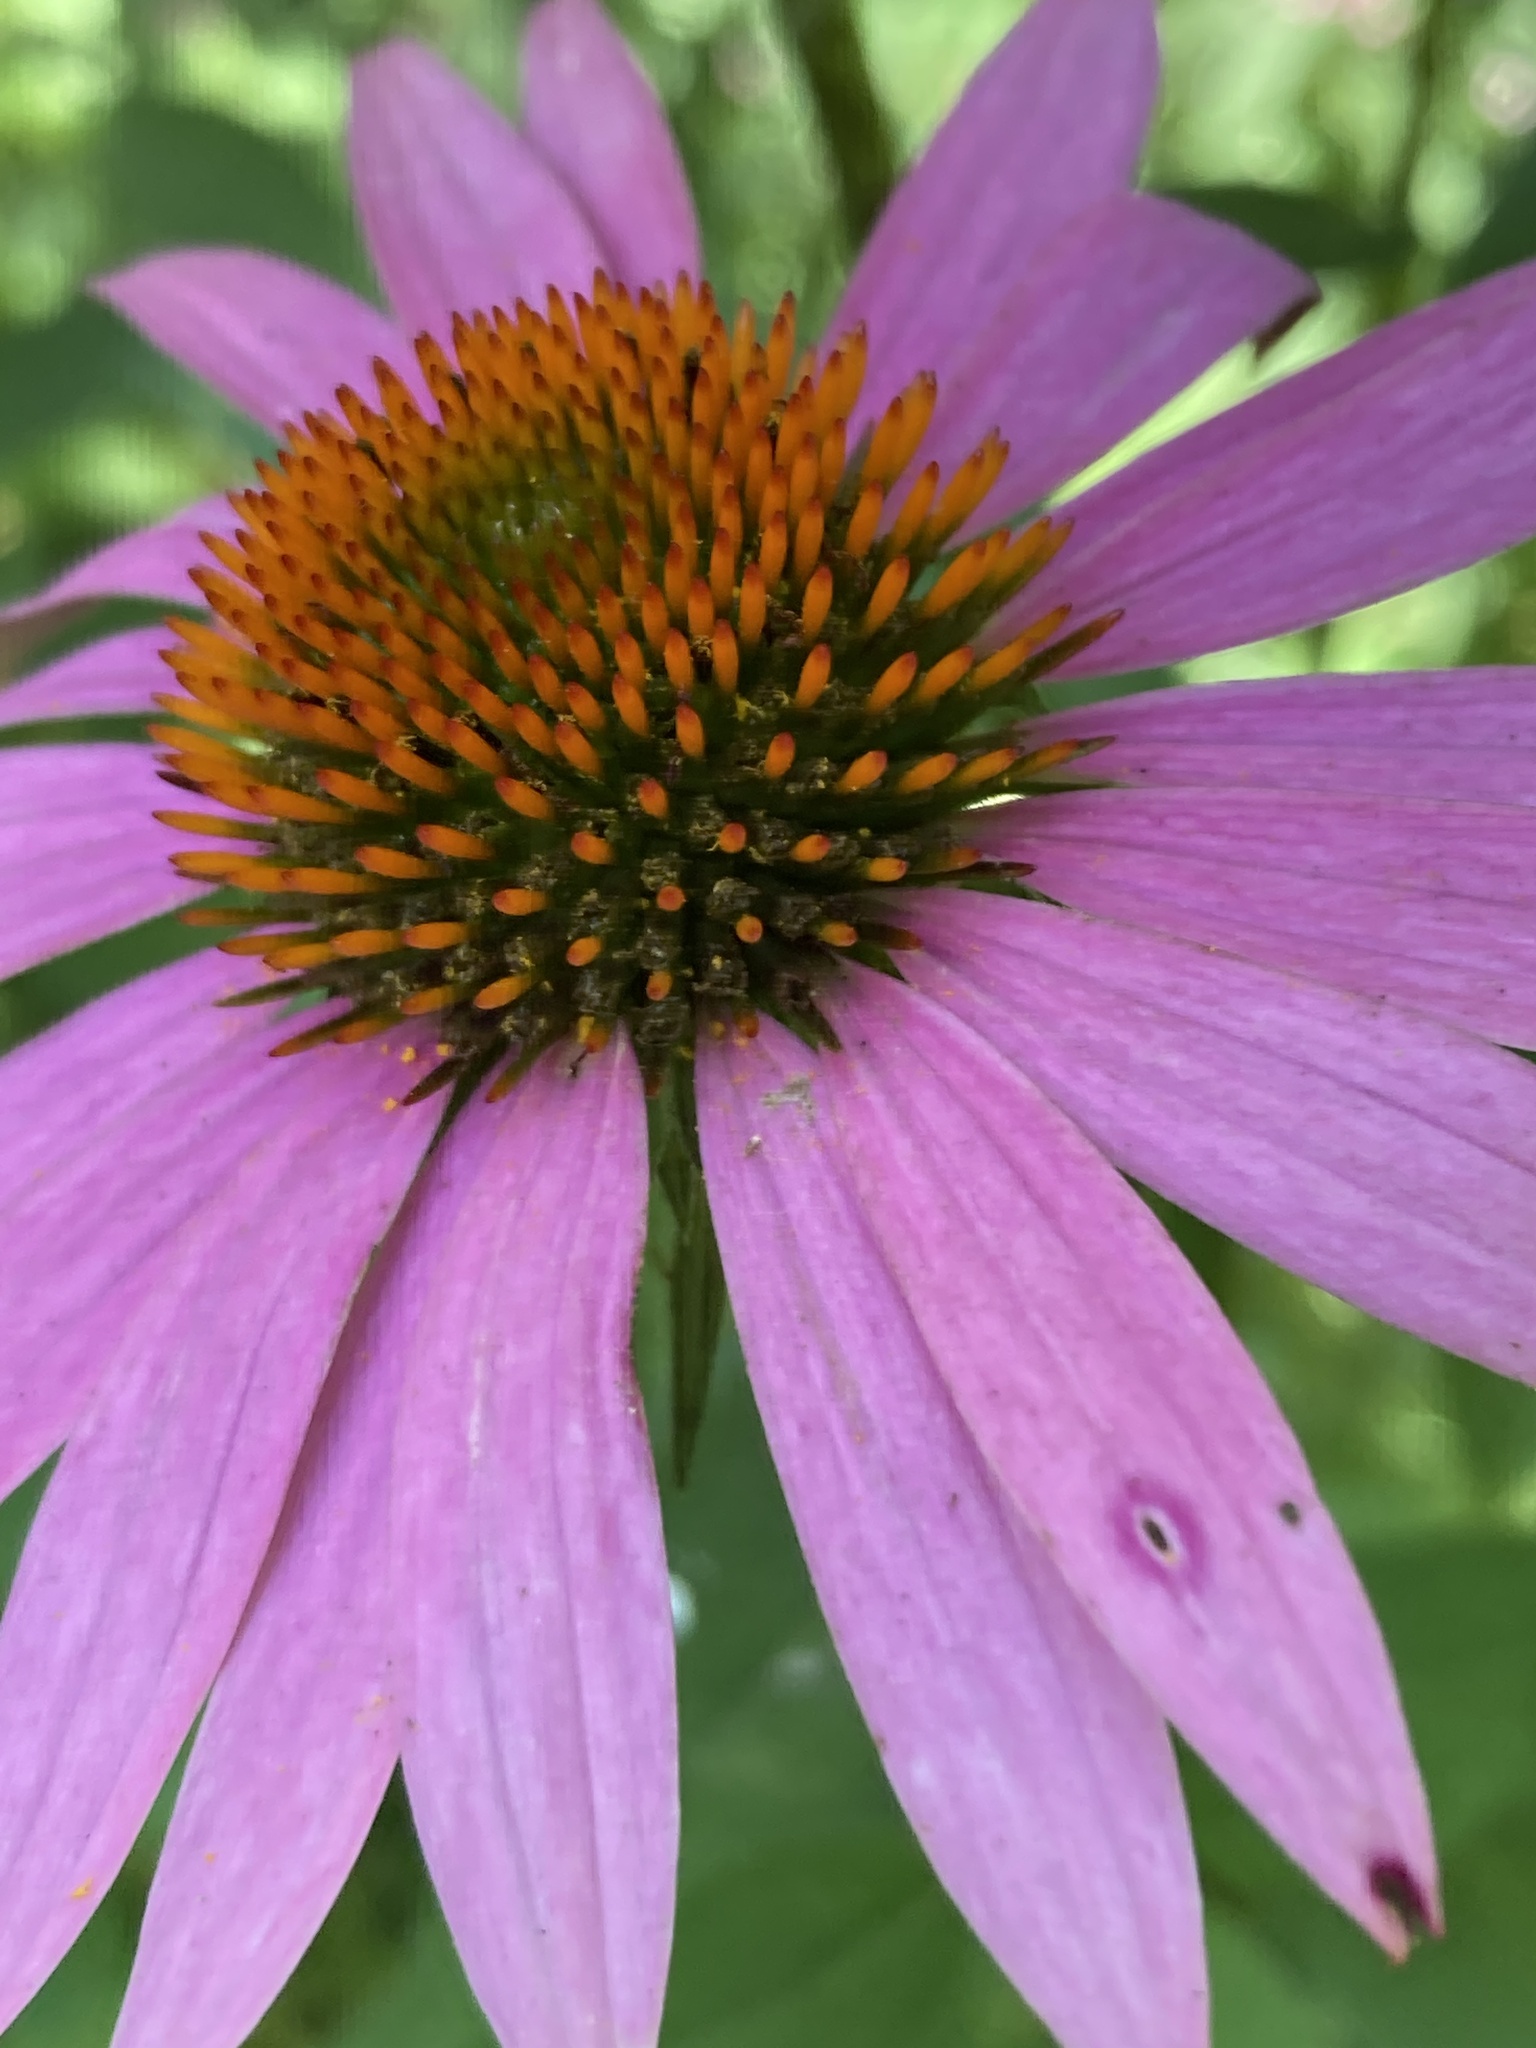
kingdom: Plantae
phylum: Tracheophyta
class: Magnoliopsida
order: Asterales
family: Asteraceae
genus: Echinacea
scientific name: Echinacea purpurea
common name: Broad-leaved purple coneflower
